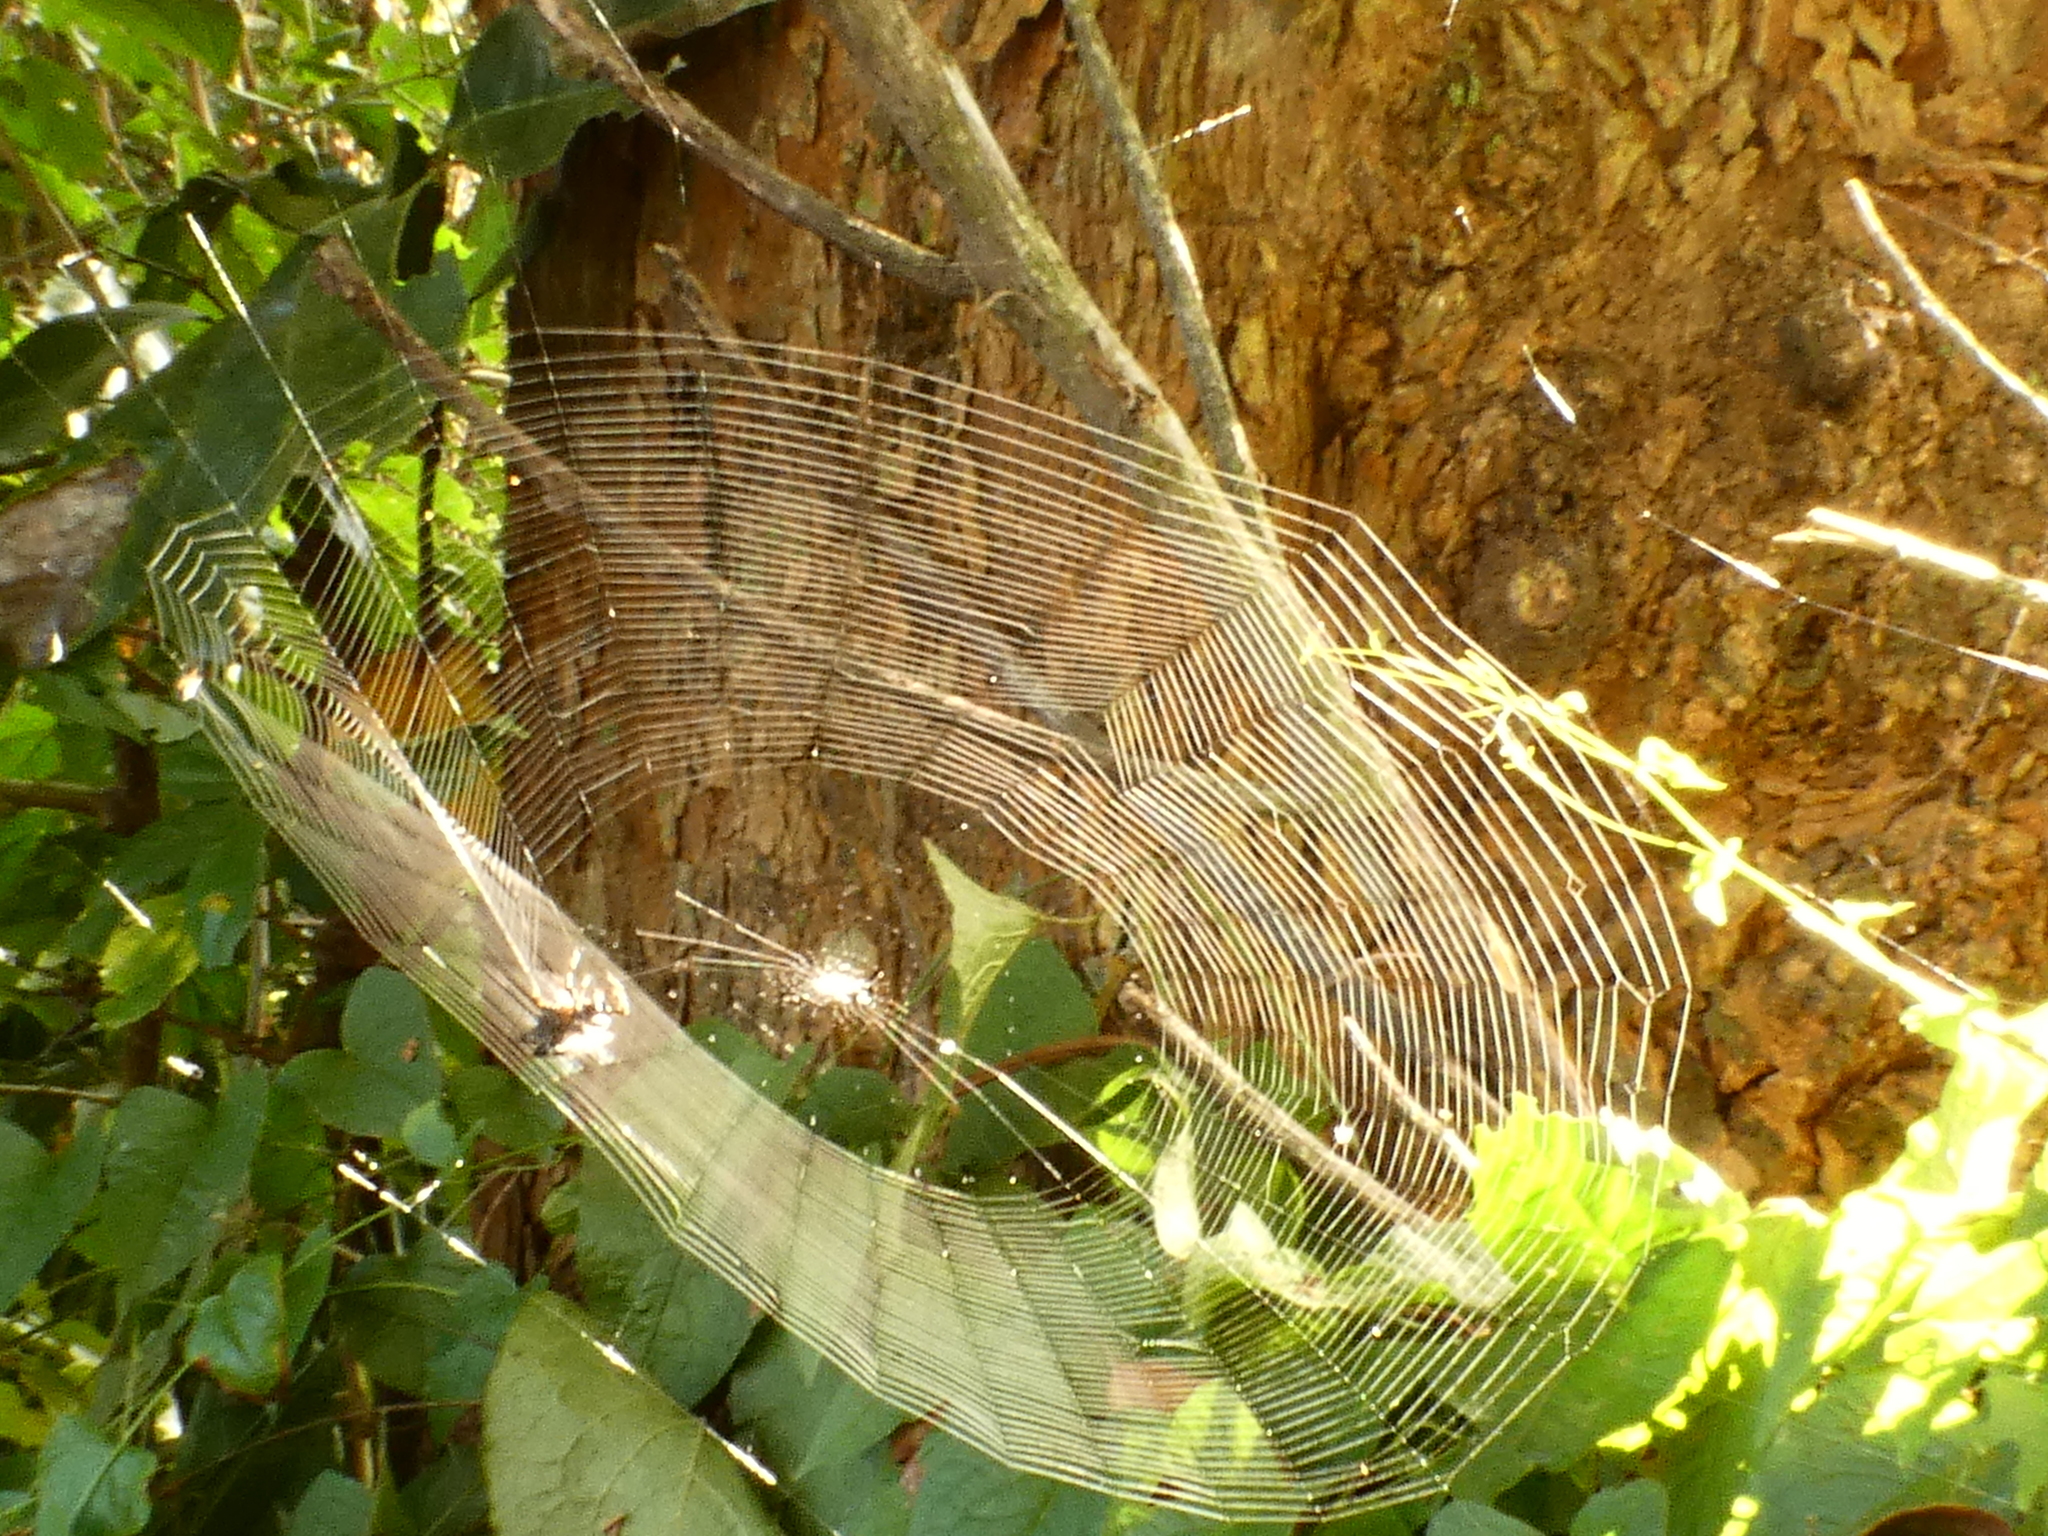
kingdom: Animalia
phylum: Arthropoda
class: Arachnida
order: Araneae
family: Araneidae
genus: Gasteracantha
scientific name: Gasteracantha cancriformis
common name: Orb weavers
